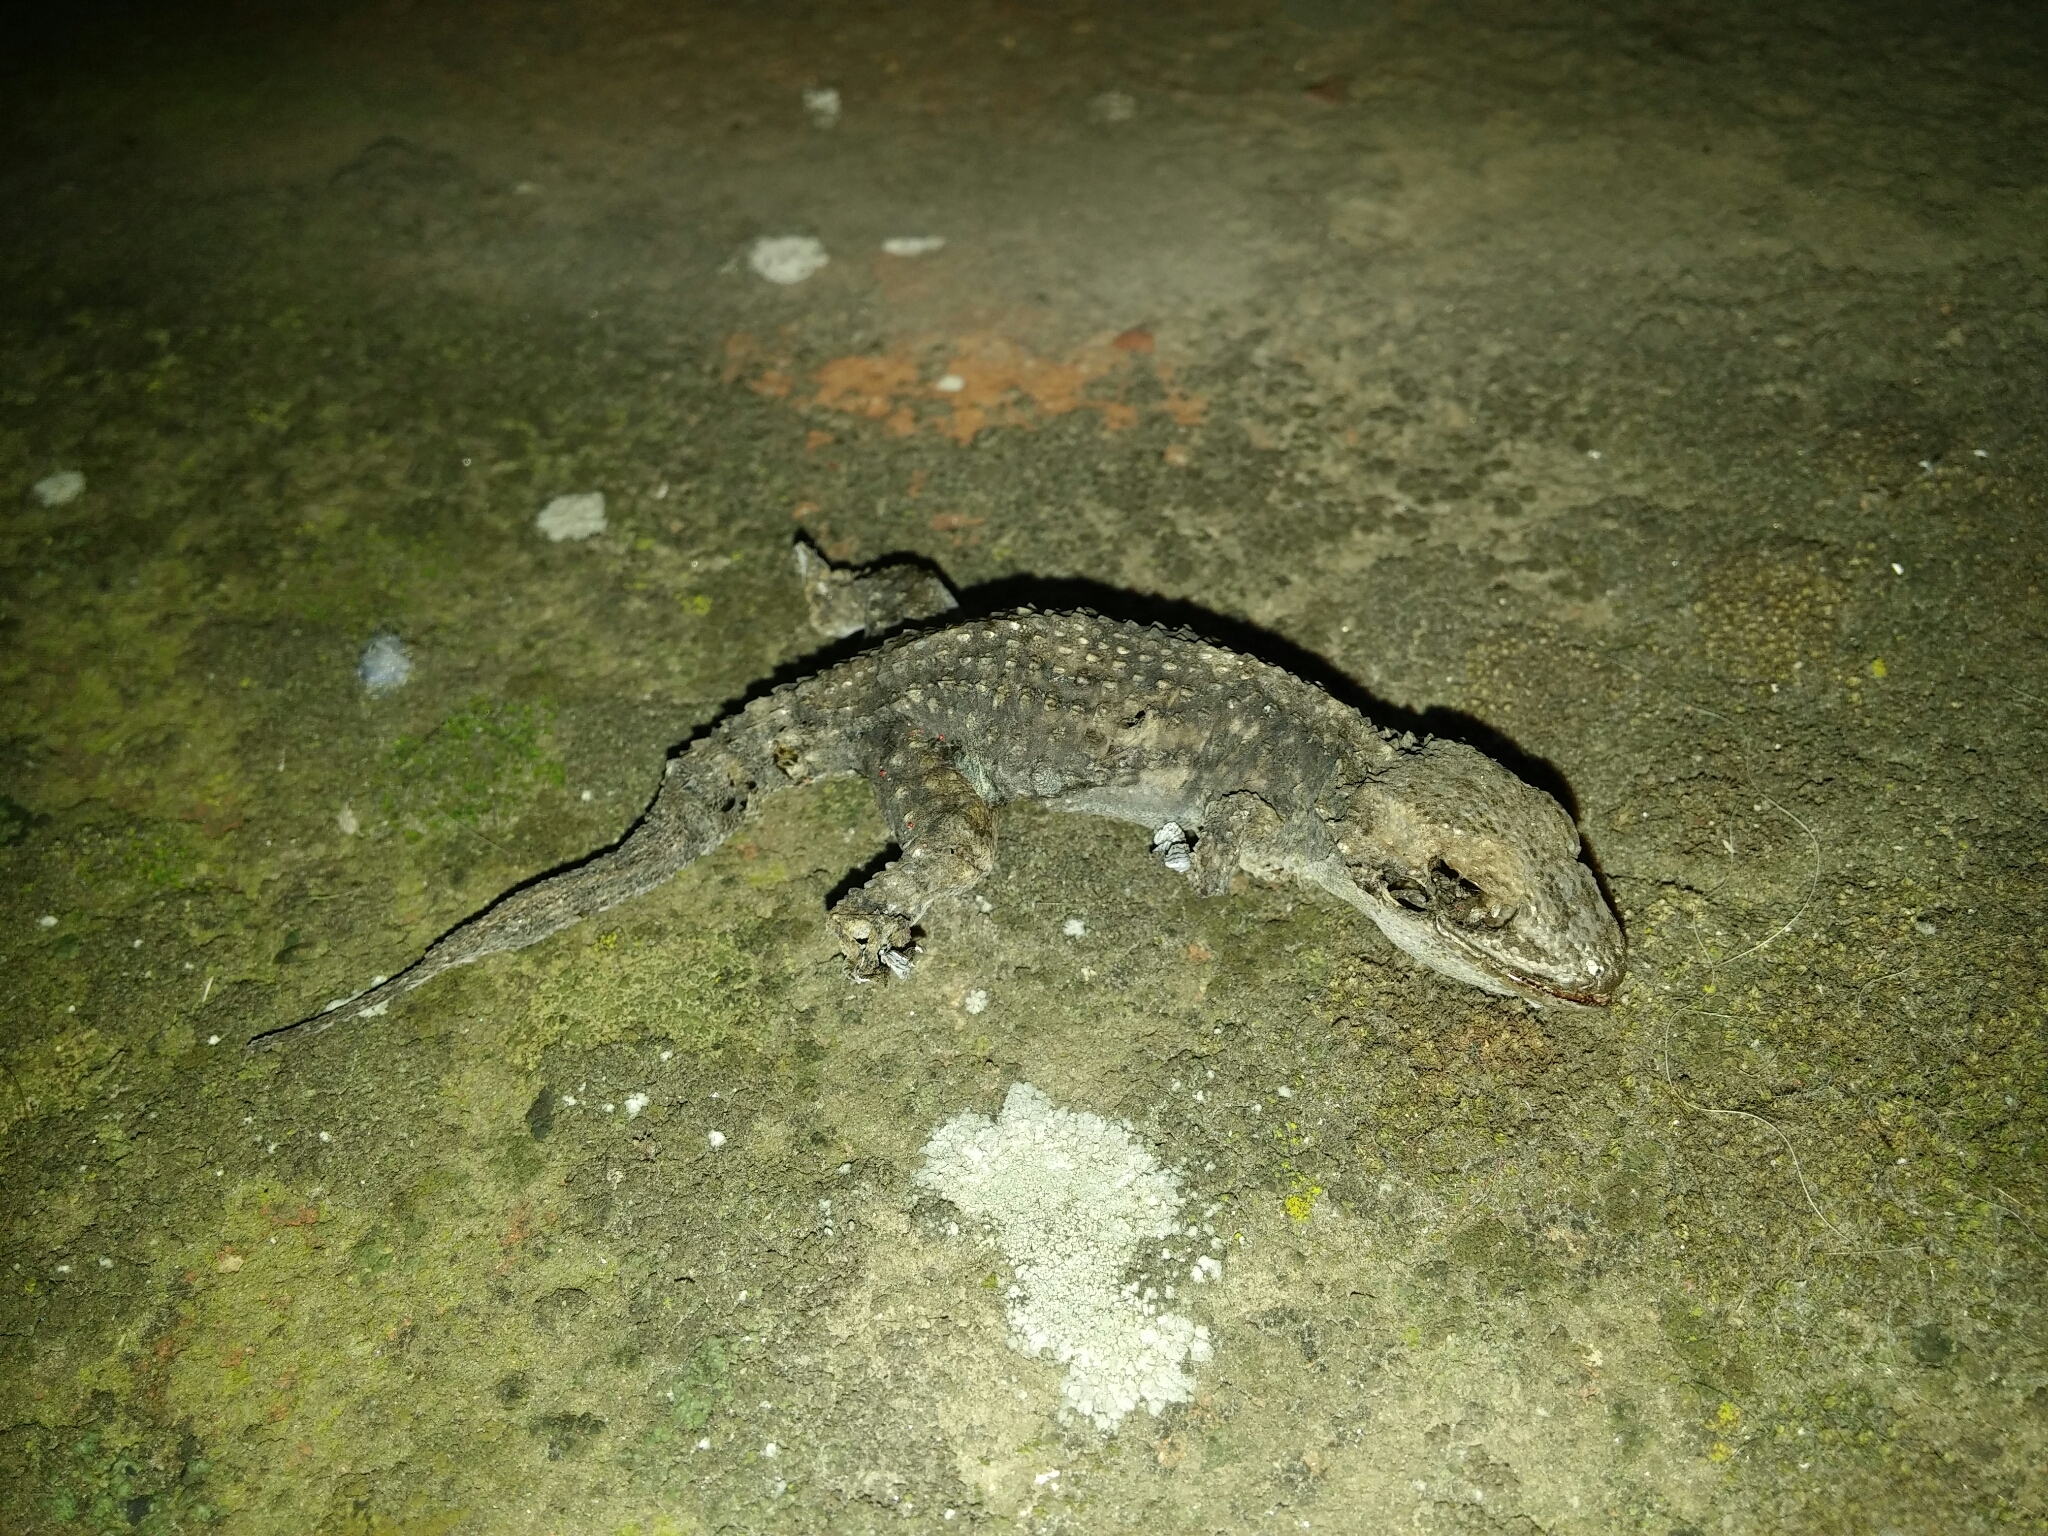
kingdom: Animalia
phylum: Chordata
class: Squamata
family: Phyllodactylidae
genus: Tarentola
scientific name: Tarentola mauritanica
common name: Moorish gecko
